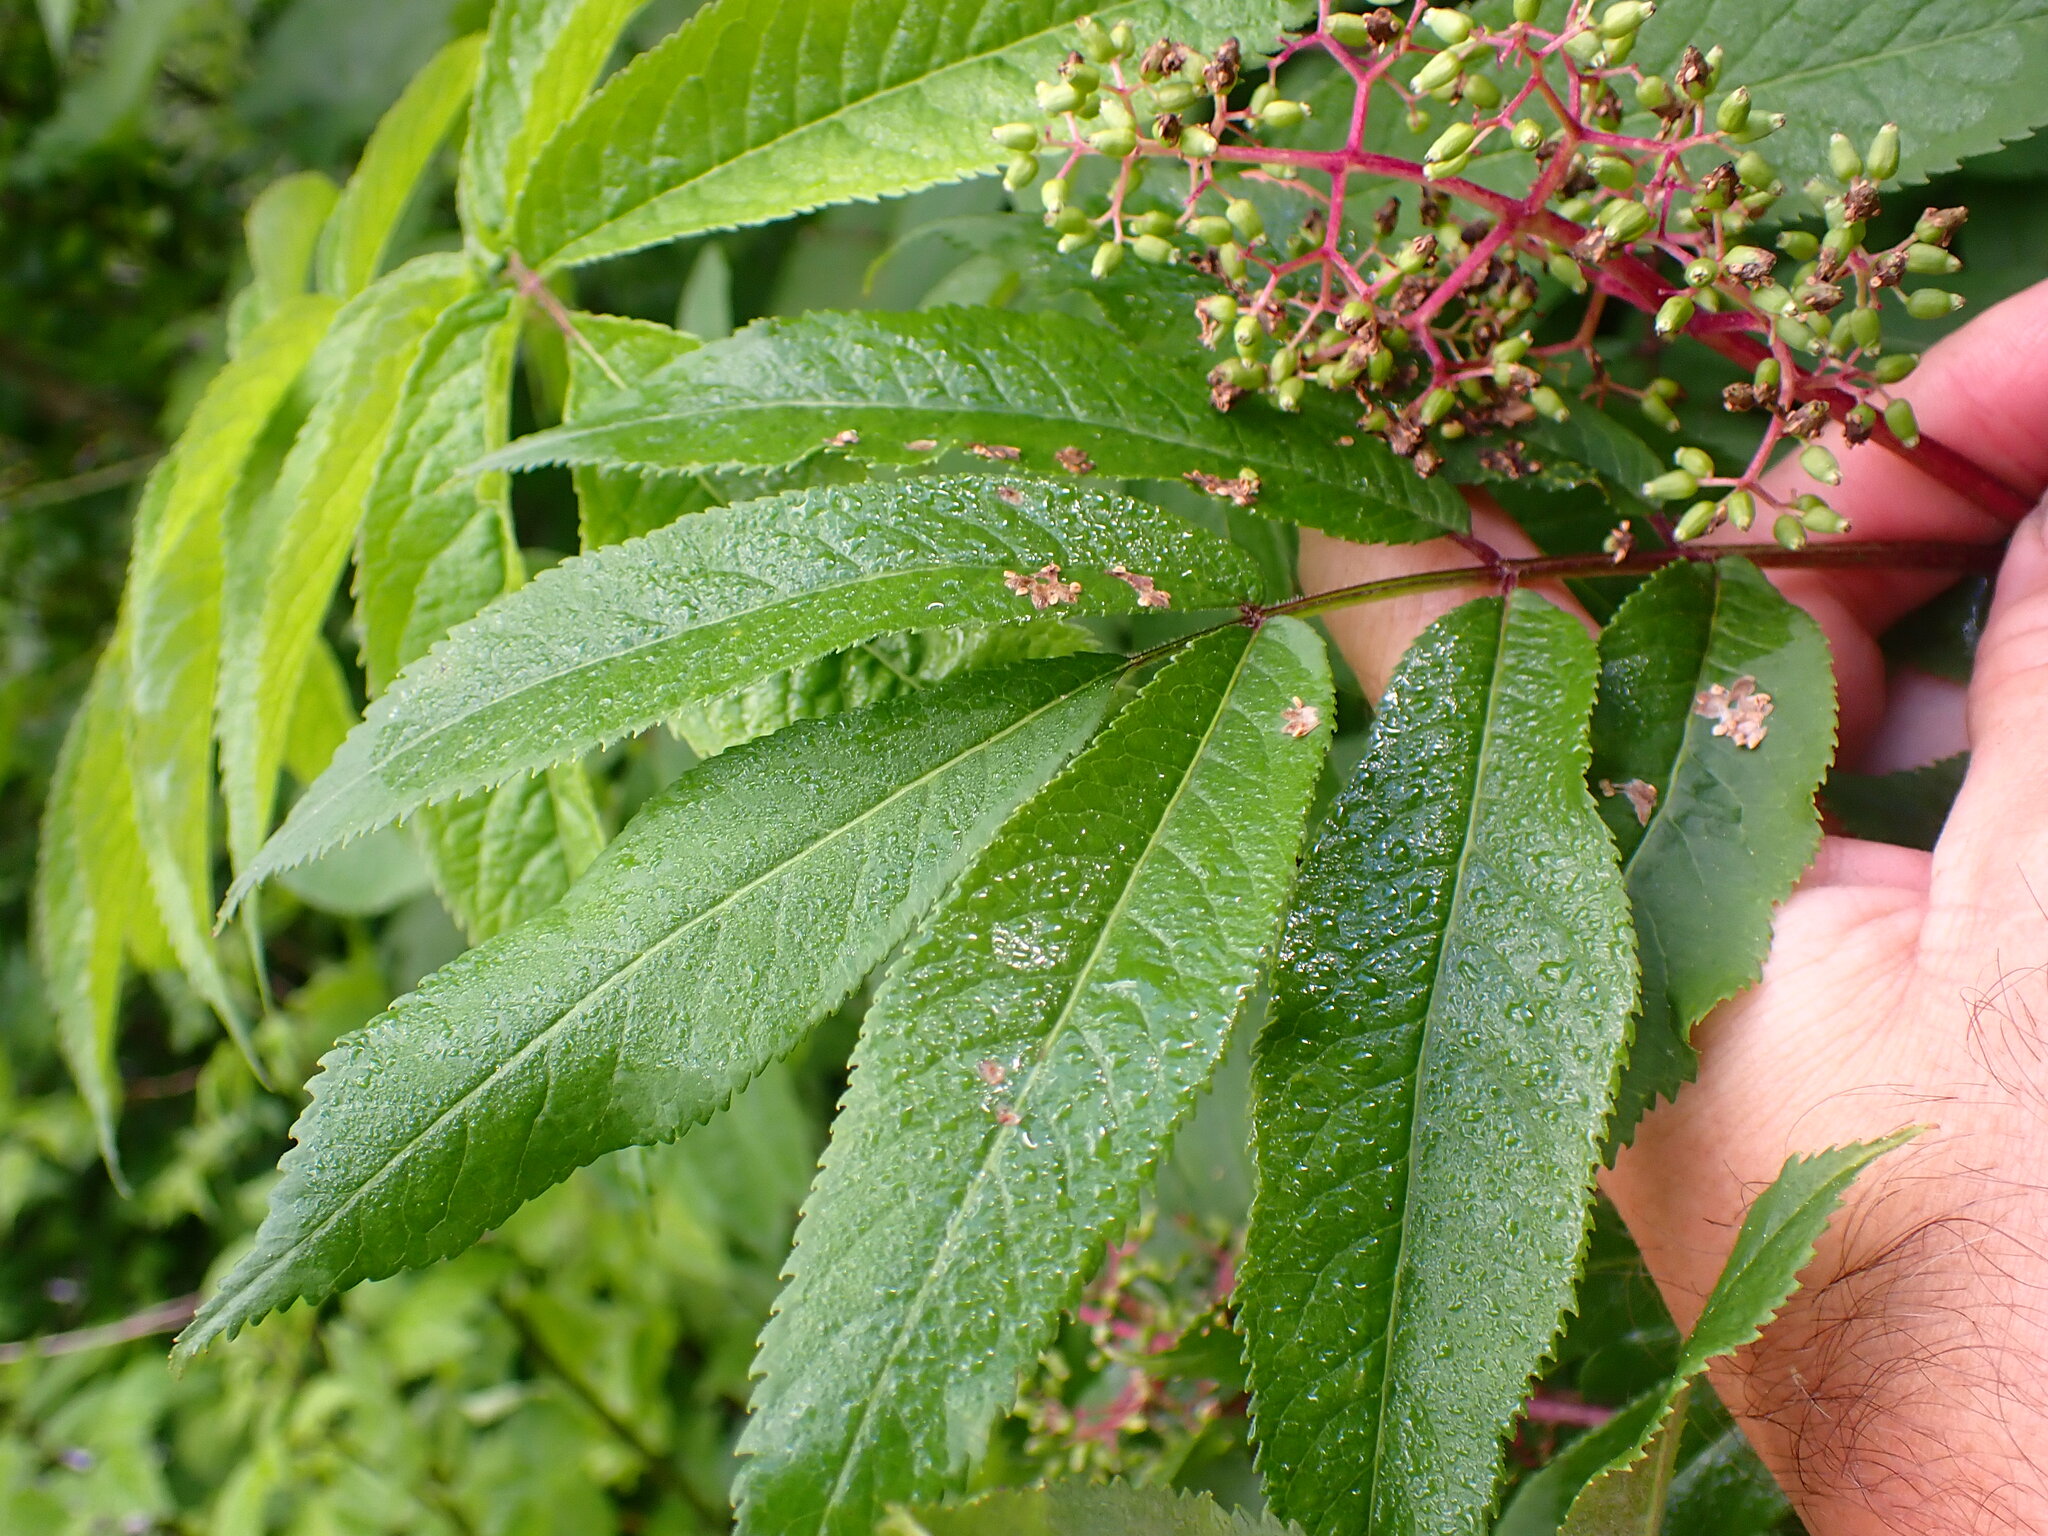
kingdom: Plantae
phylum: Tracheophyta
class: Magnoliopsida
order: Dipsacales
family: Viburnaceae
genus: Sambucus
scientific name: Sambucus racemosa
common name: Red-berried elder
